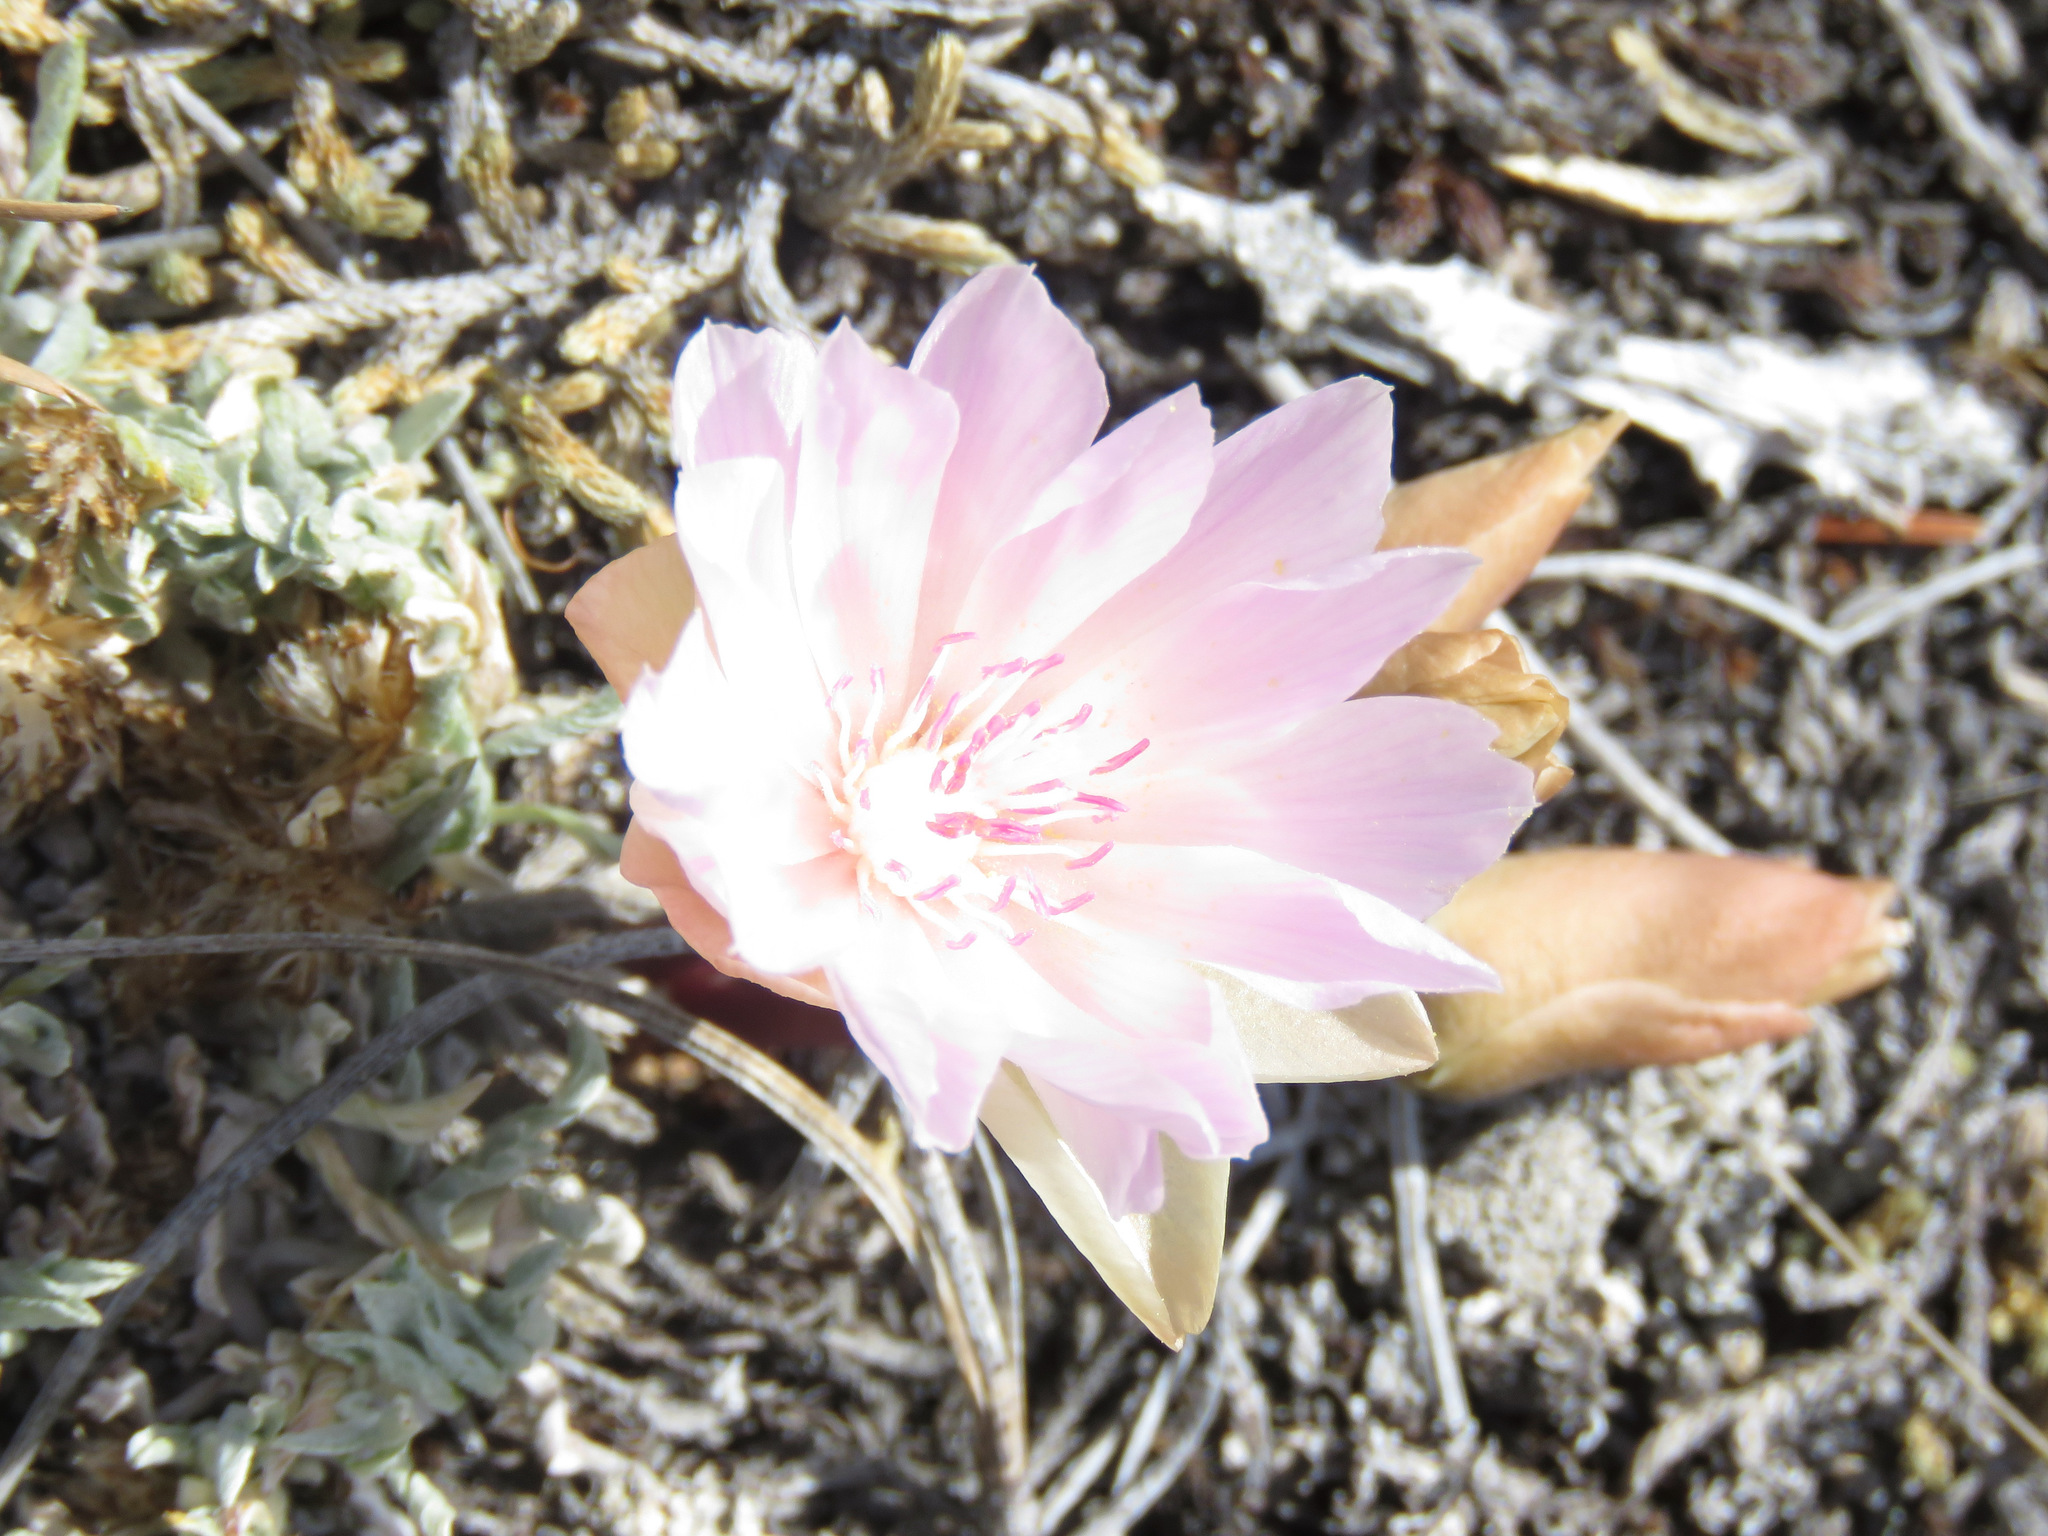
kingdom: Plantae
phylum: Tracheophyta
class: Magnoliopsida
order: Caryophyllales
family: Montiaceae
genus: Lewisia
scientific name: Lewisia rediviva
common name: Bitter-root
